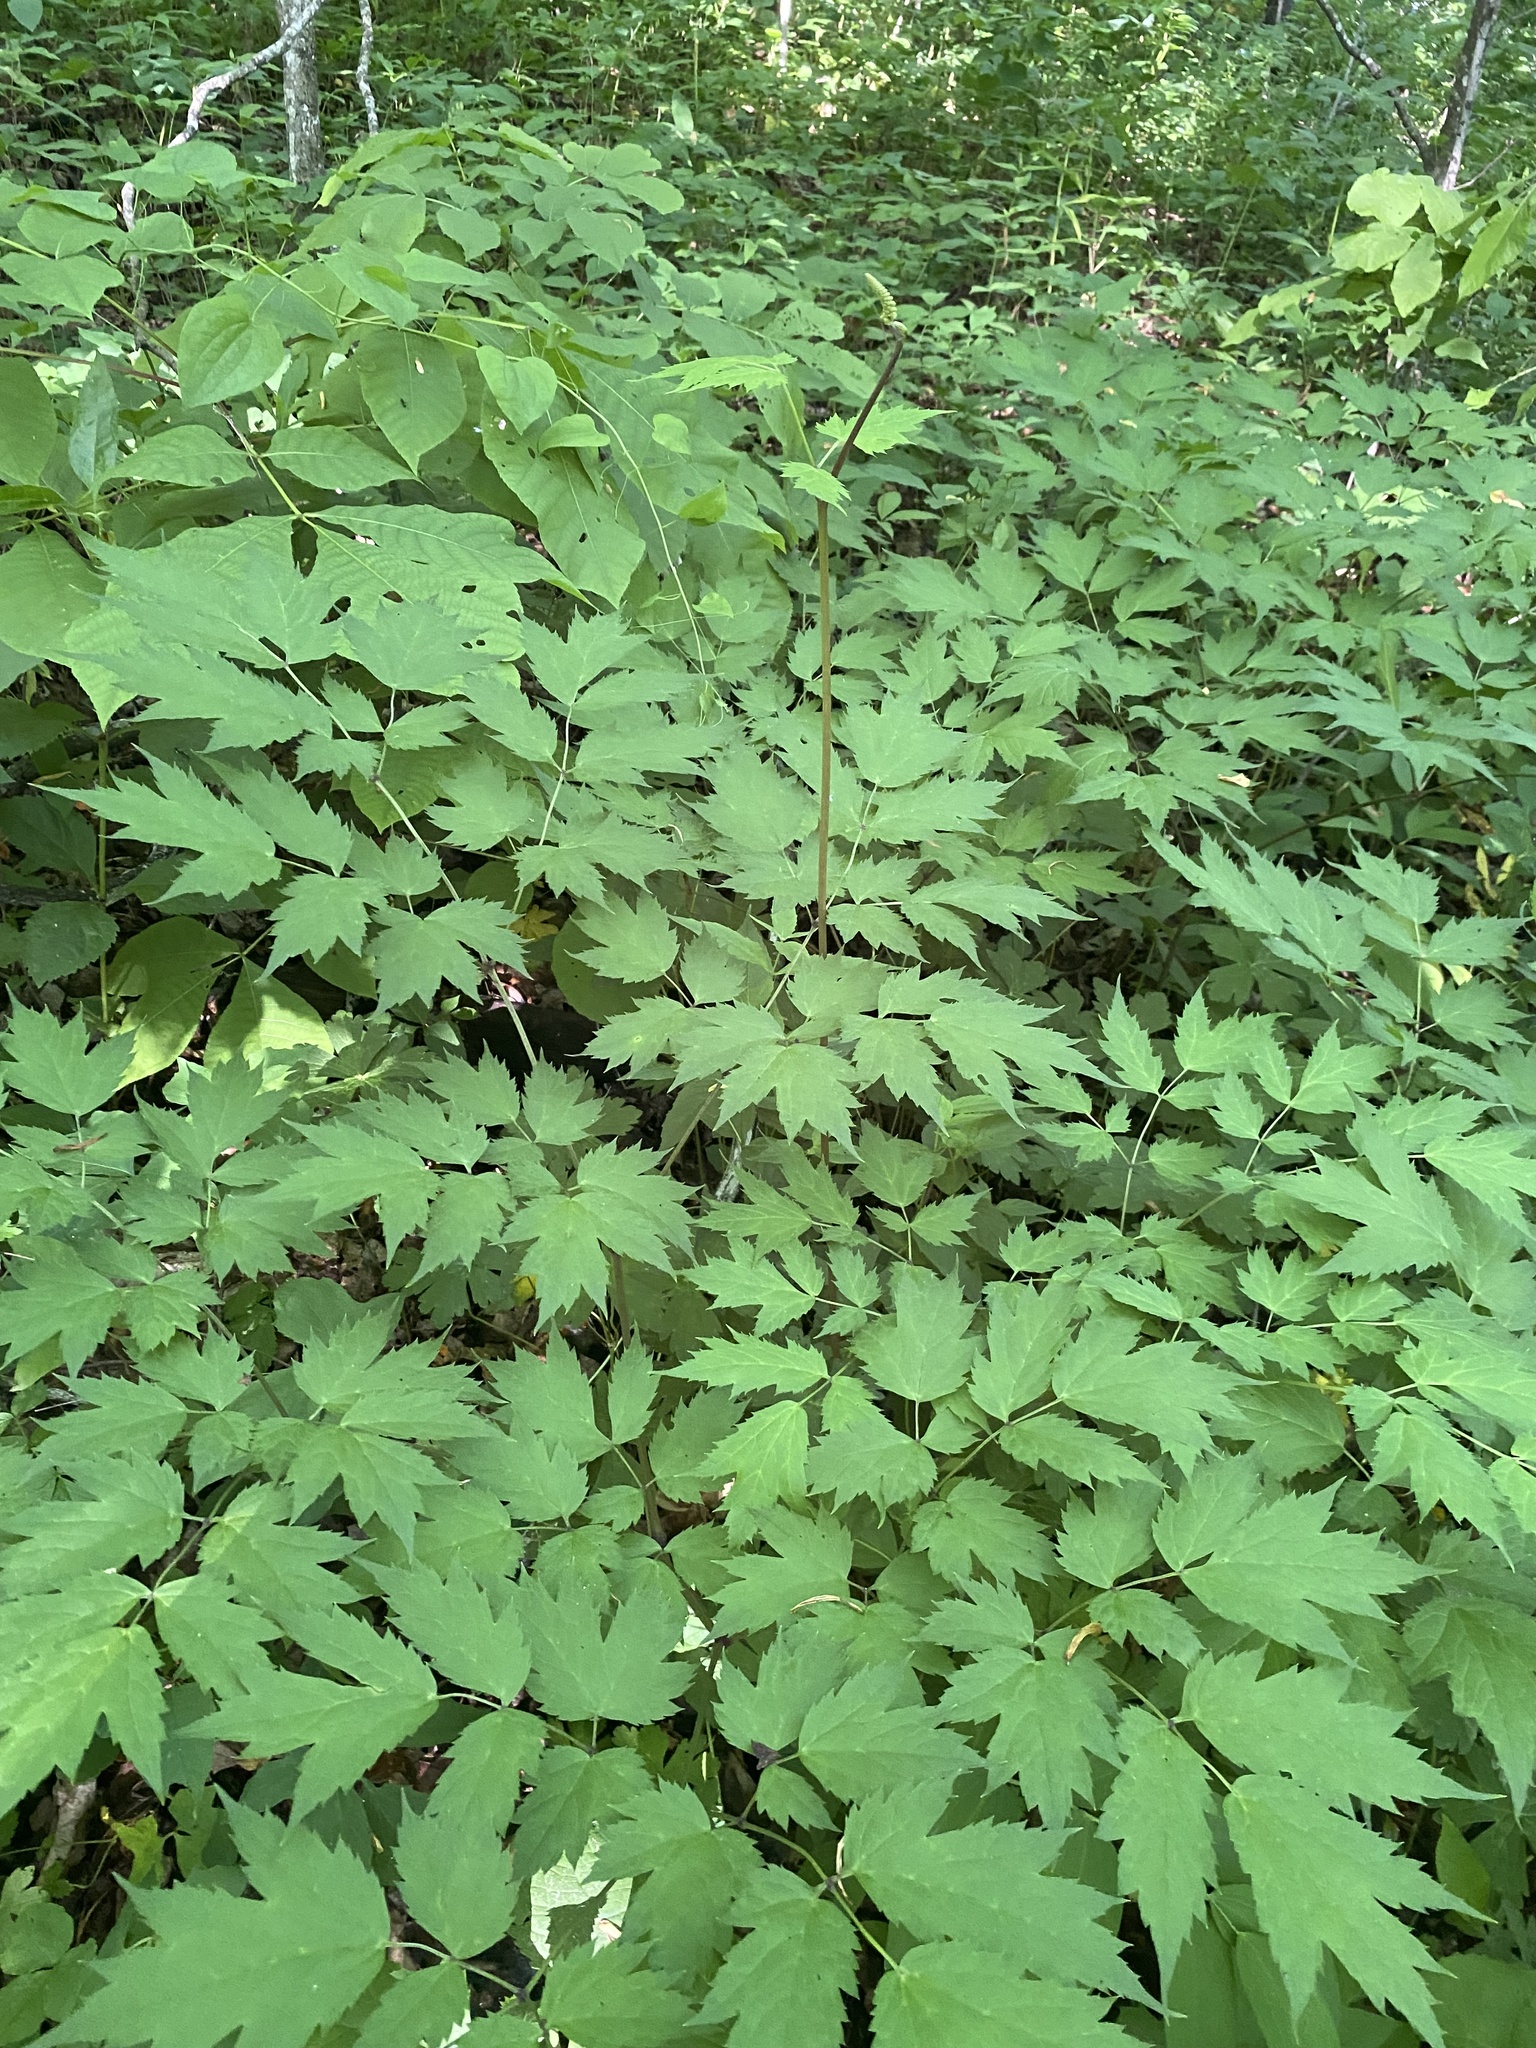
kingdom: Plantae
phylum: Tracheophyta
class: Magnoliopsida
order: Ranunculales
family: Ranunculaceae
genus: Actaea
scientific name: Actaea racemosa
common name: Black cohosh
